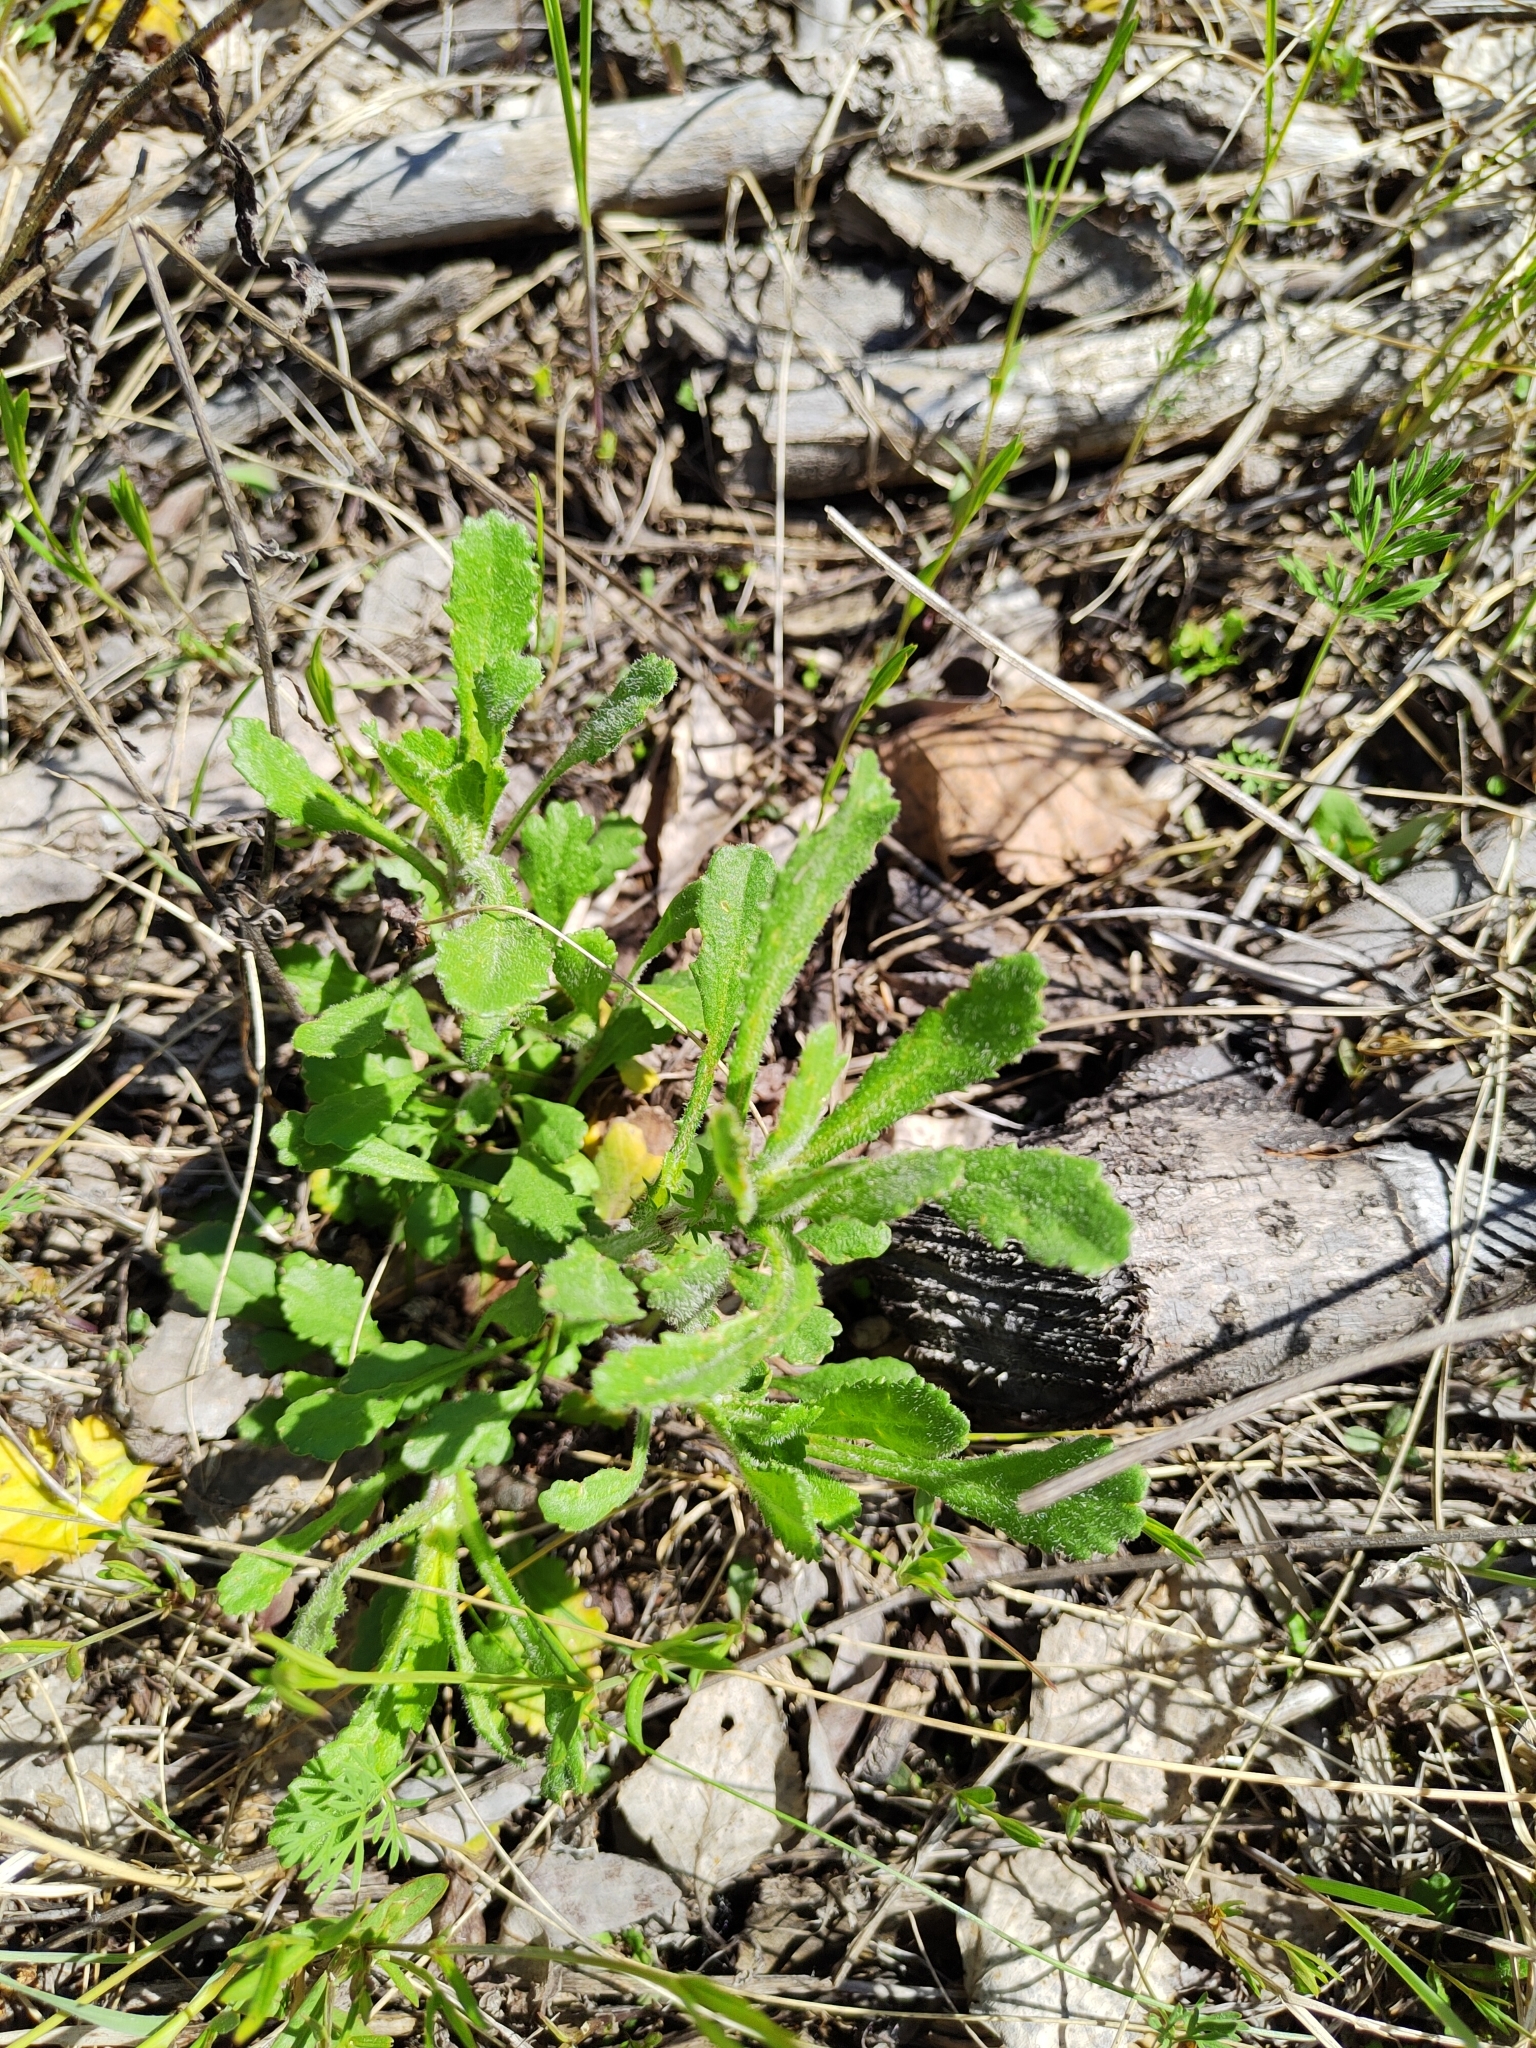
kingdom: Plantae
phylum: Tracheophyta
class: Magnoliopsida
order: Asterales
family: Asteraceae
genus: Leucanthemum
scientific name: Leucanthemum ircutianum
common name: Daisy
